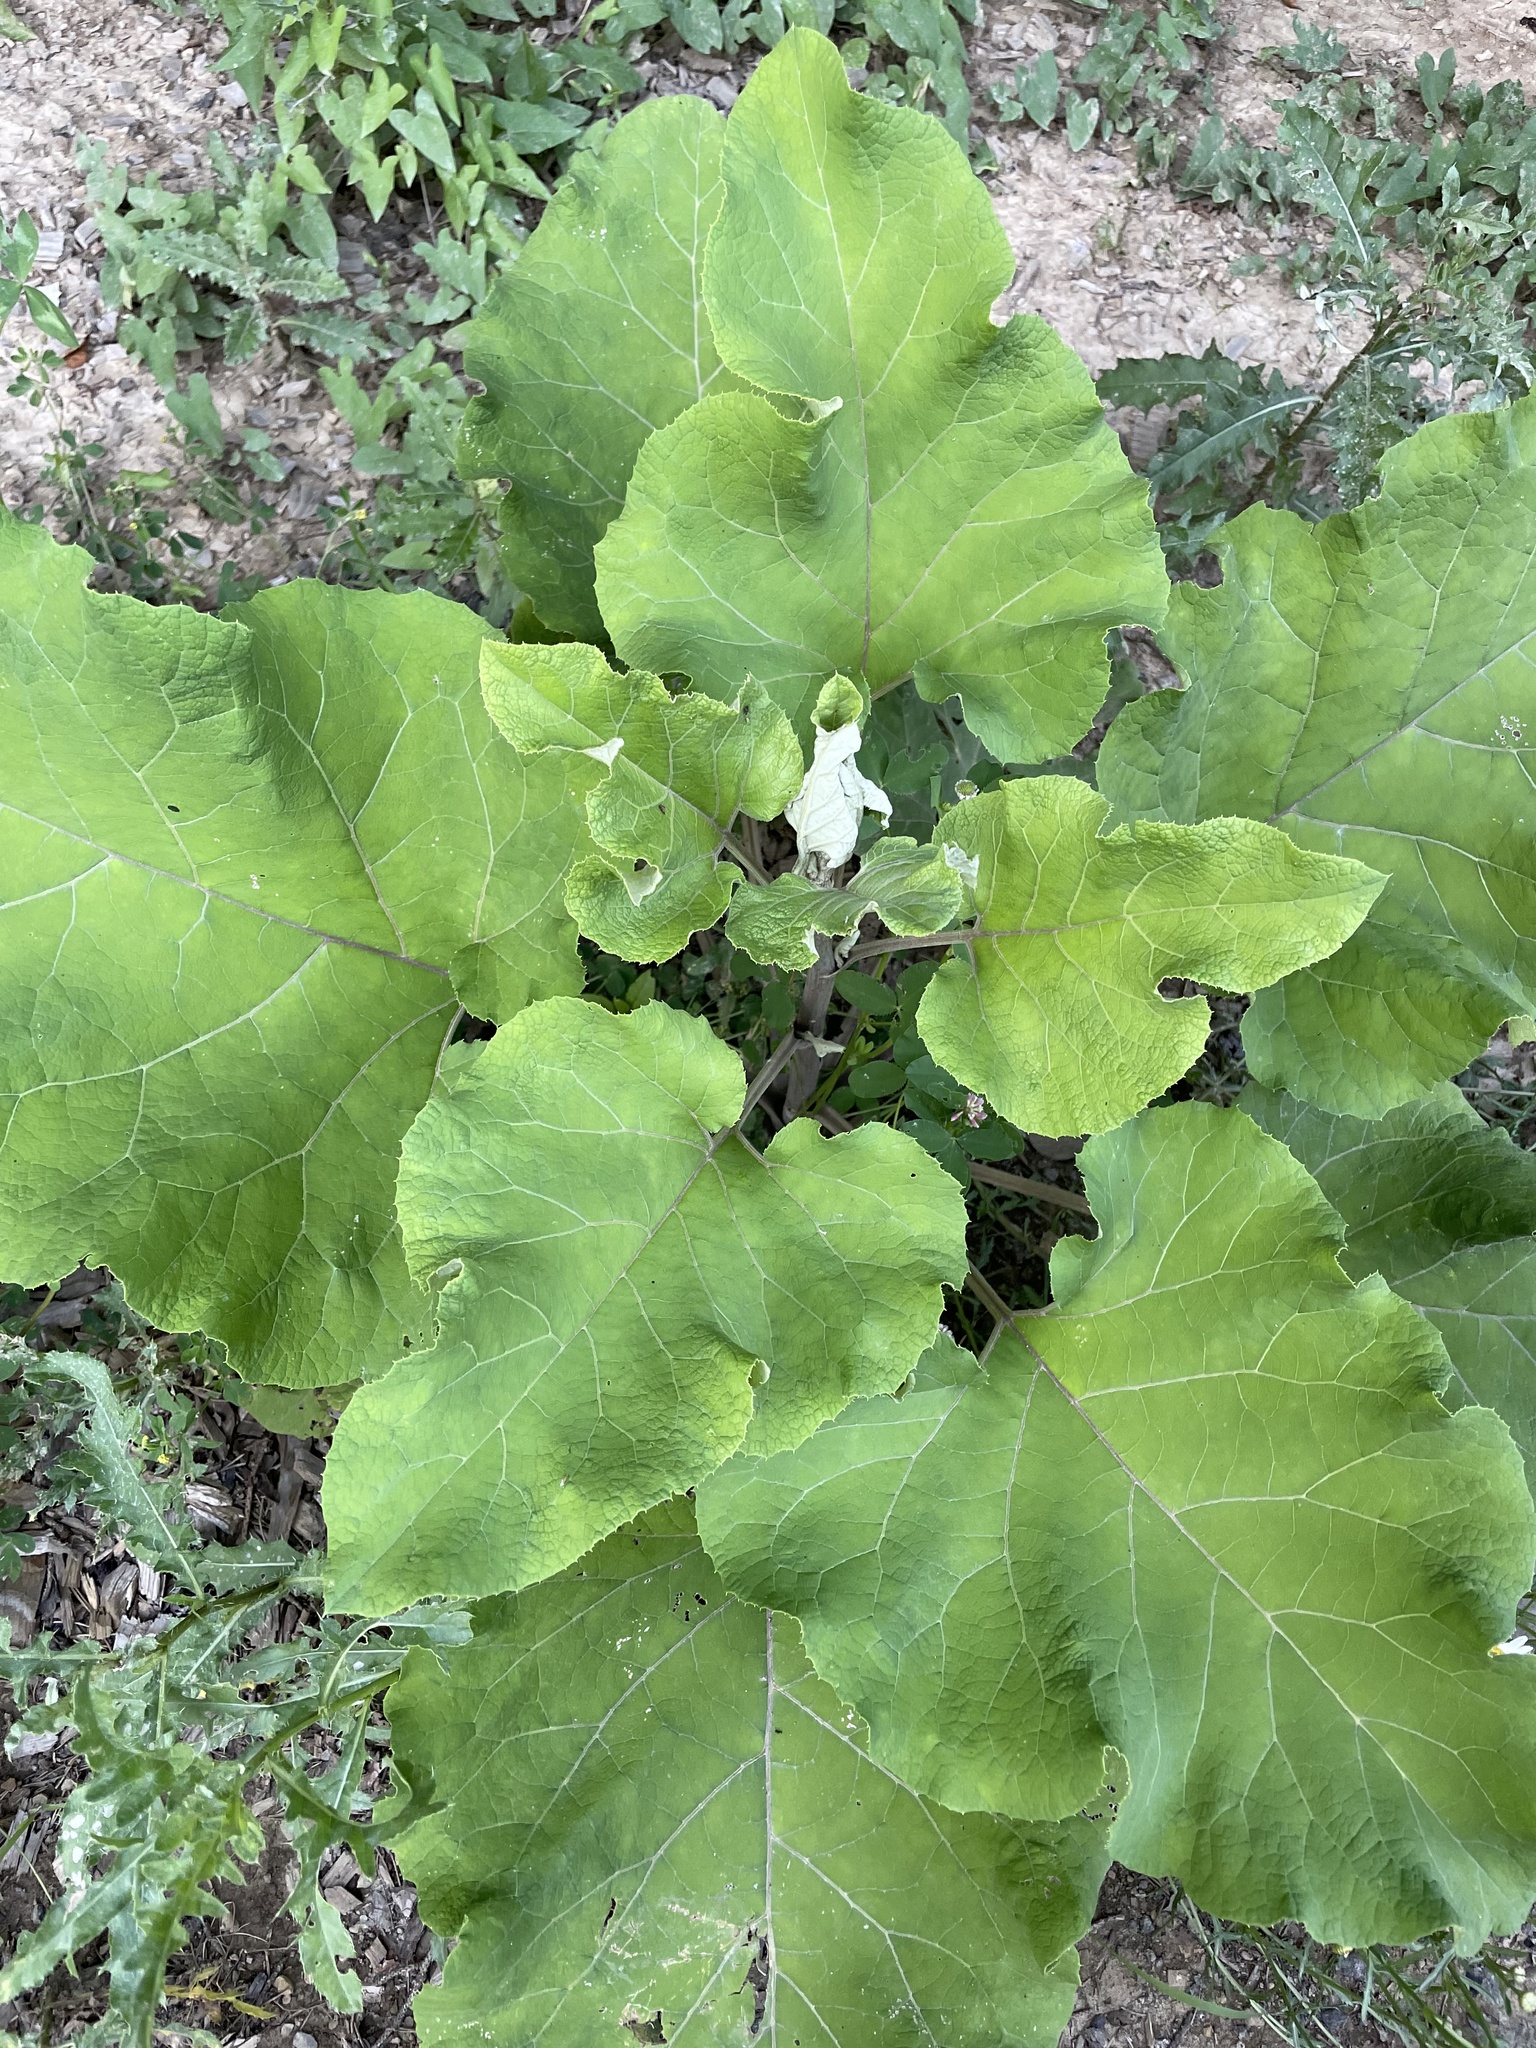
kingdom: Plantae
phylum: Tracheophyta
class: Magnoliopsida
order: Asterales
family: Asteraceae
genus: Arctium
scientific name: Arctium
